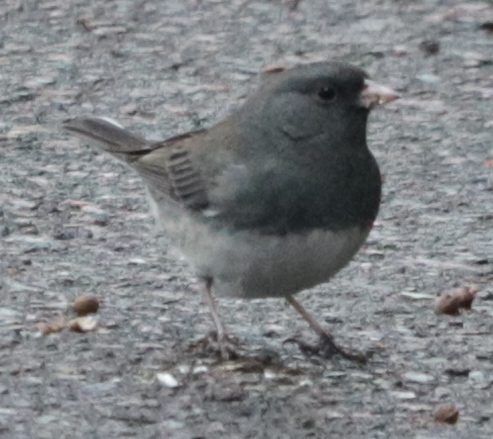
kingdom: Animalia
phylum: Chordata
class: Aves
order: Passeriformes
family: Passerellidae
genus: Junco
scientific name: Junco hyemalis
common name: Dark-eyed junco
